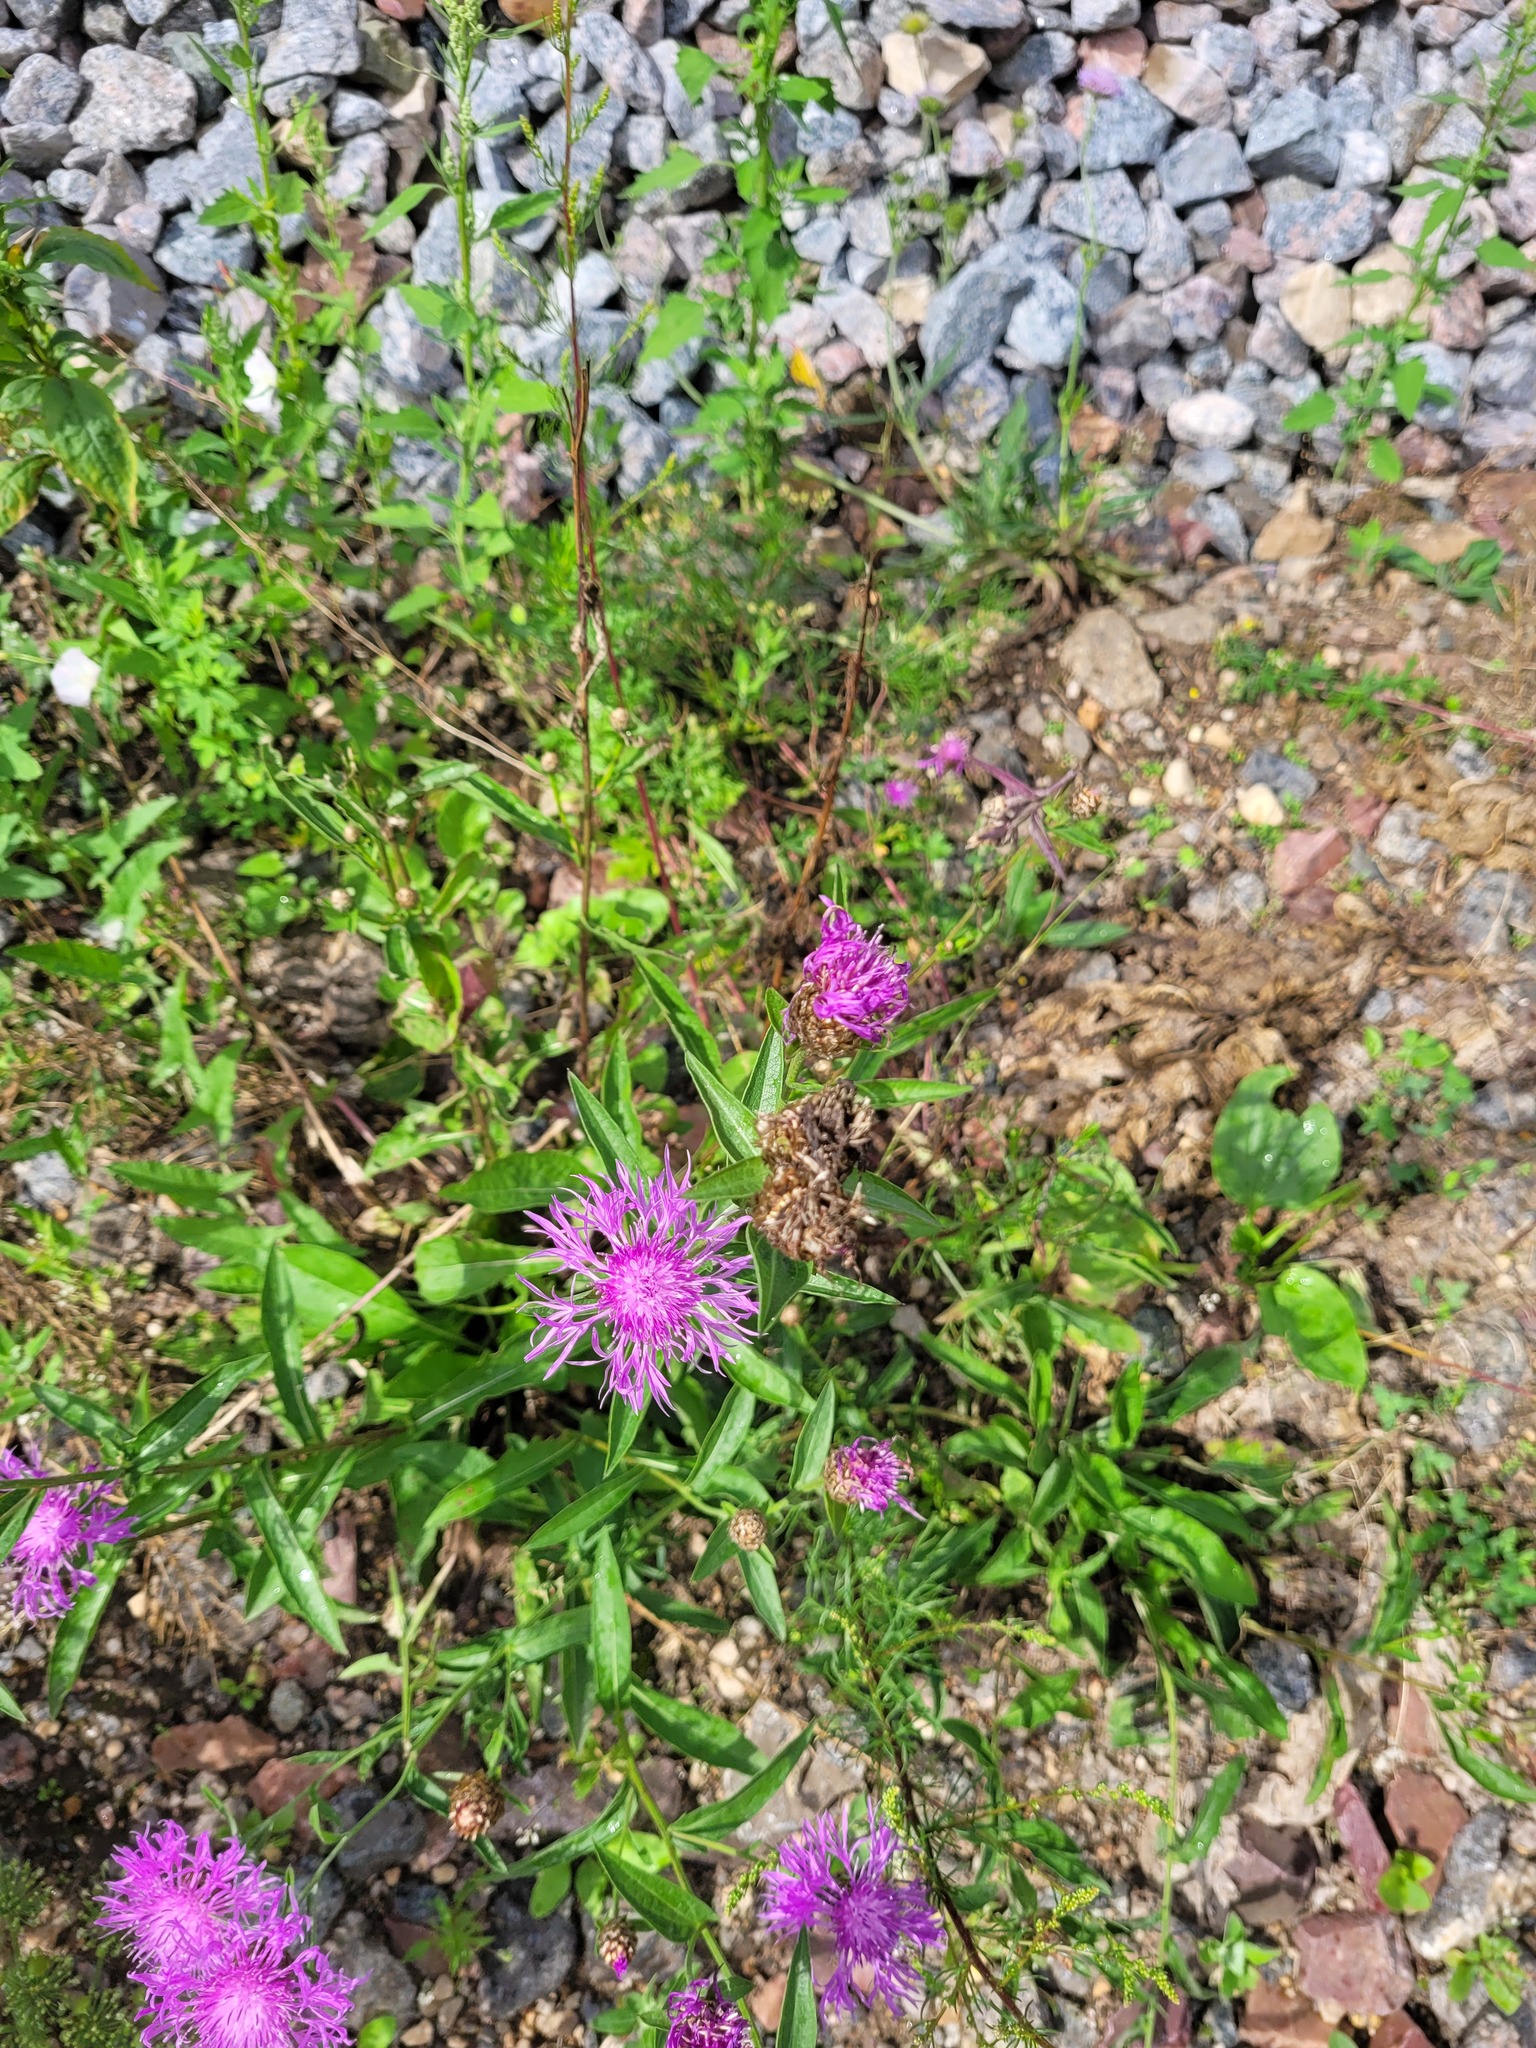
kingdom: Plantae
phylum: Tracheophyta
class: Magnoliopsida
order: Asterales
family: Asteraceae
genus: Centaurea
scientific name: Centaurea jacea
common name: Brown knapweed
